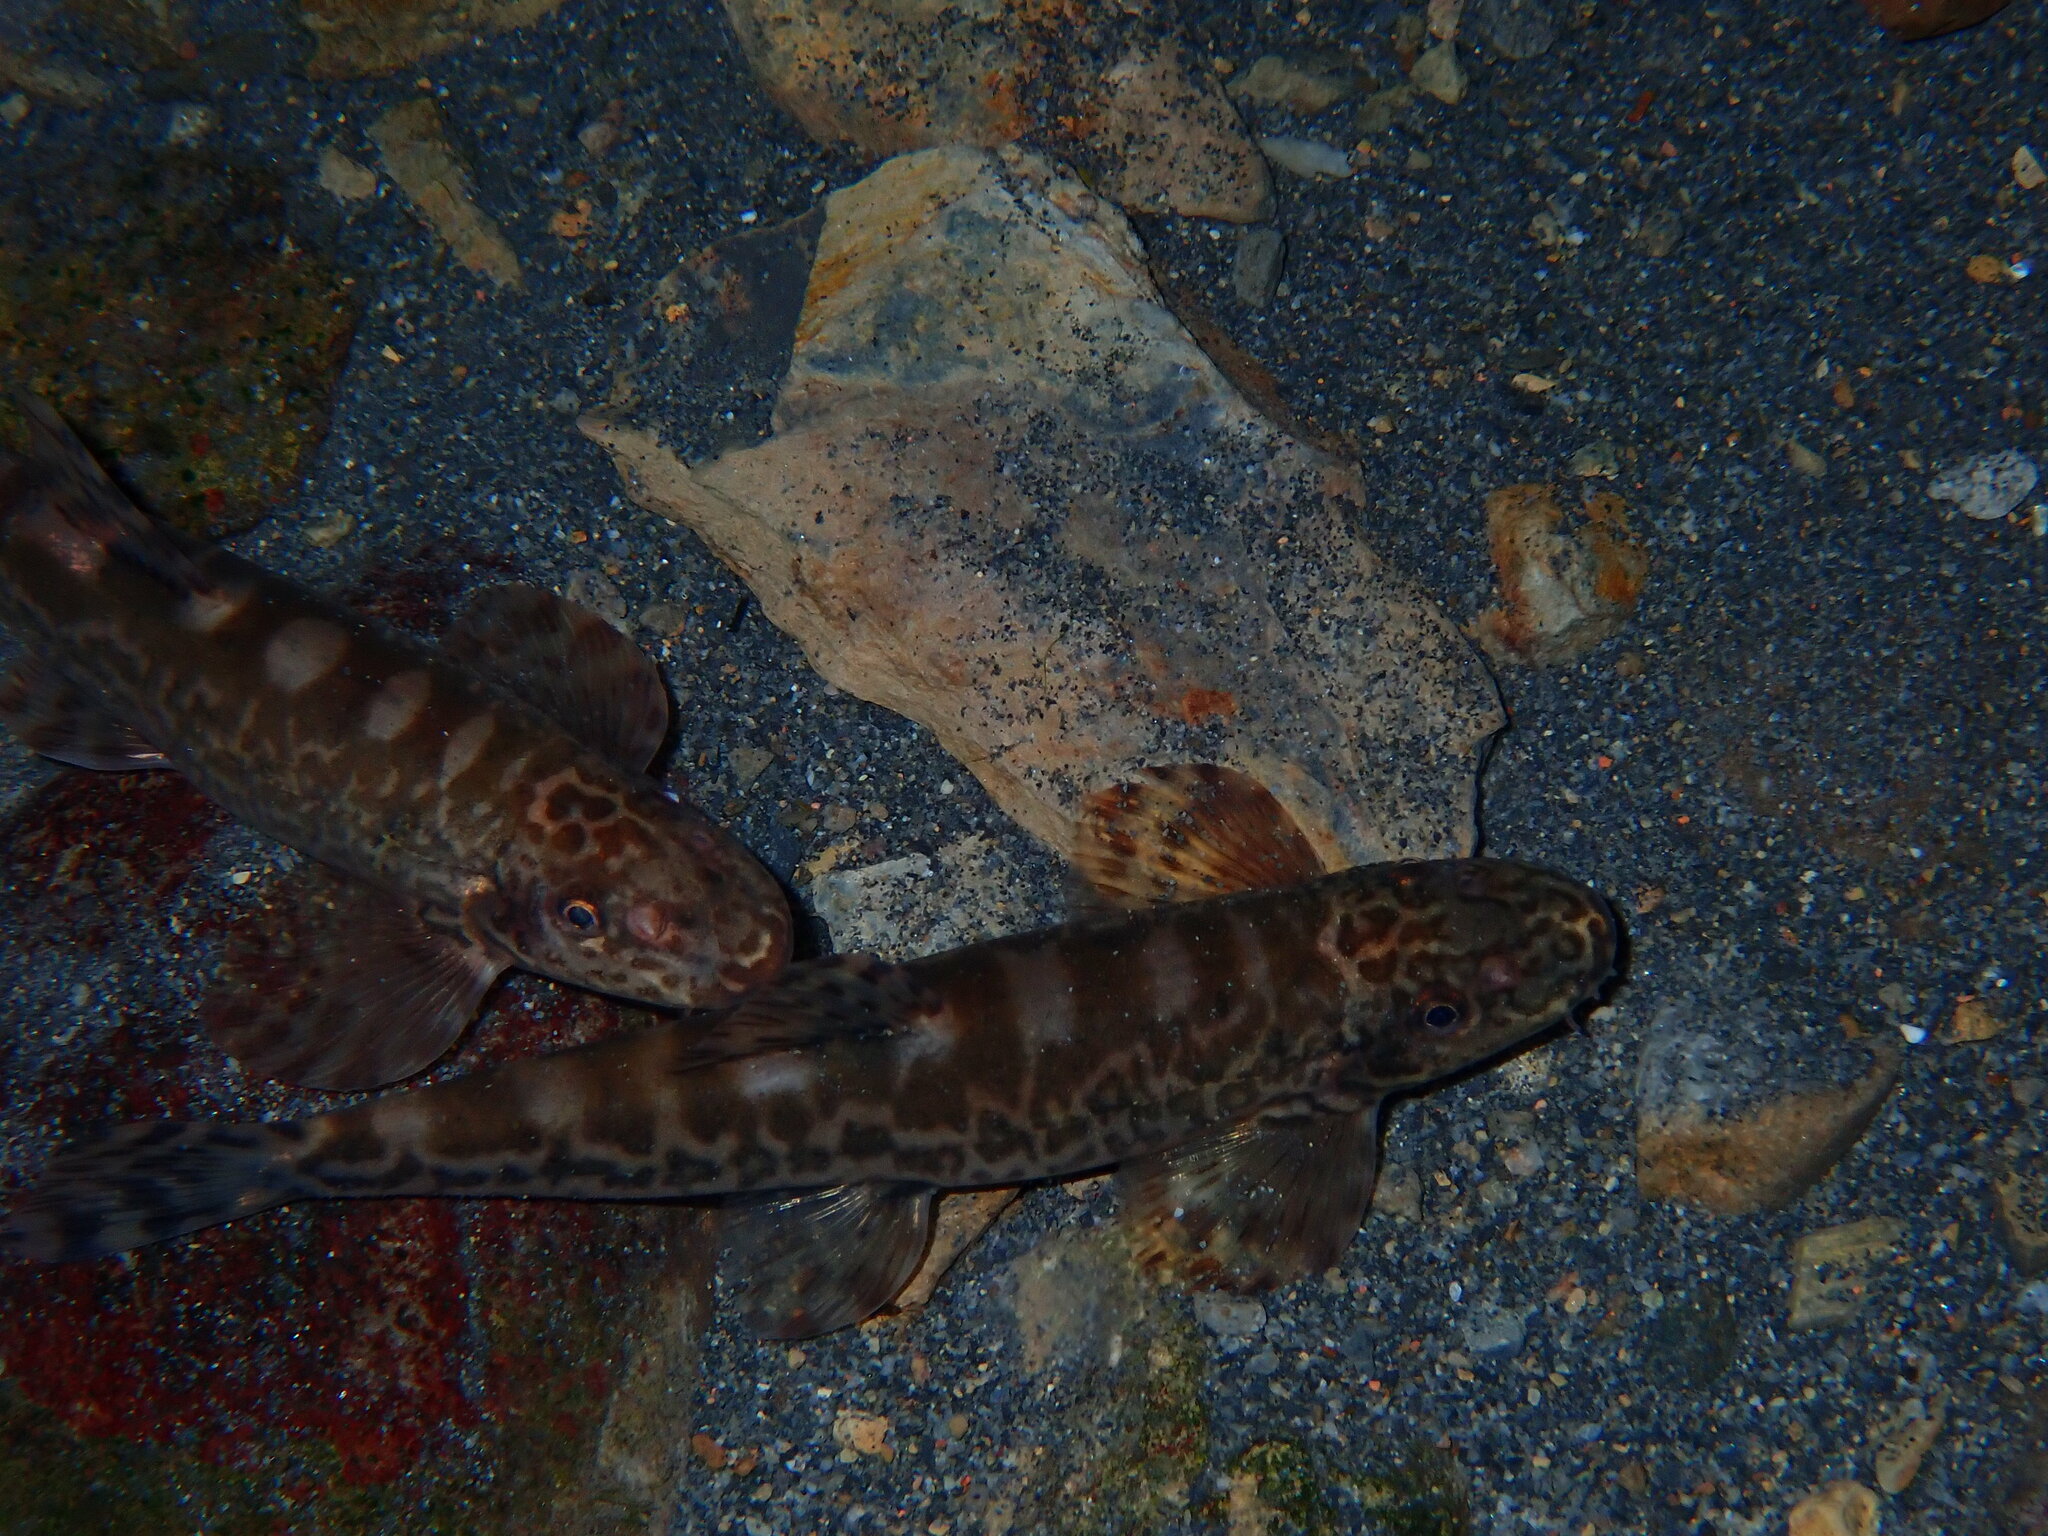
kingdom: Animalia
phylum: Chordata
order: Cypriniformes
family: Balitoridae
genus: Formosania
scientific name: Formosania lacustre
